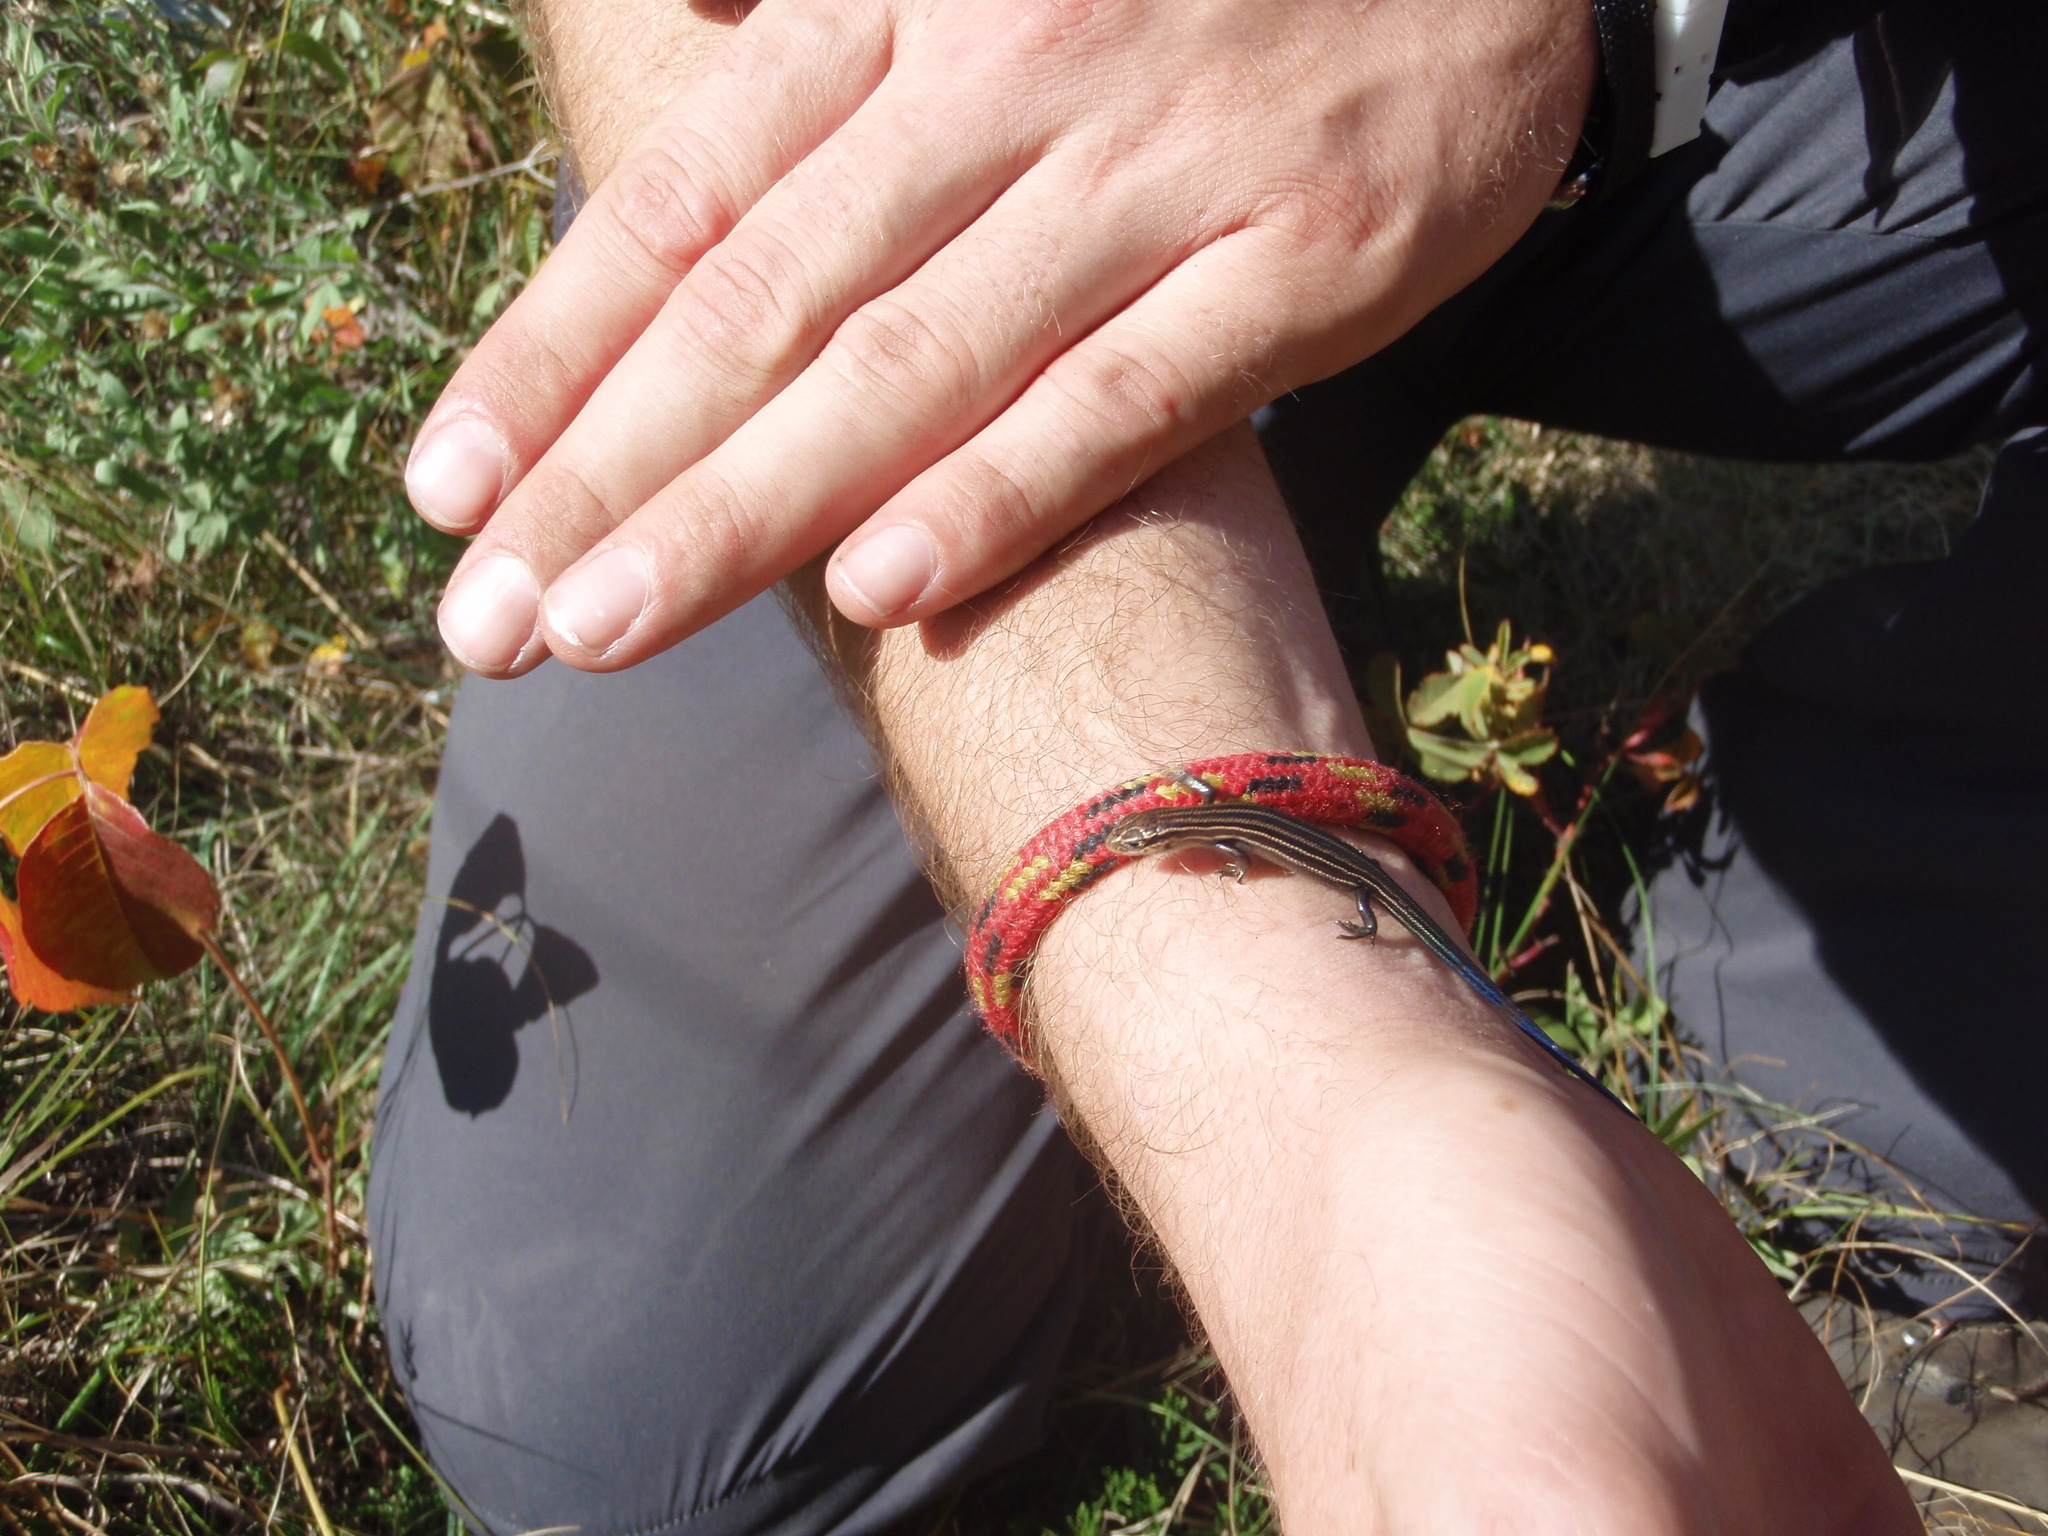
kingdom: Animalia
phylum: Chordata
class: Squamata
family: Scincidae
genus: Plestiodon
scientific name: Plestiodon septentrionalis
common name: Northern prairie skink
